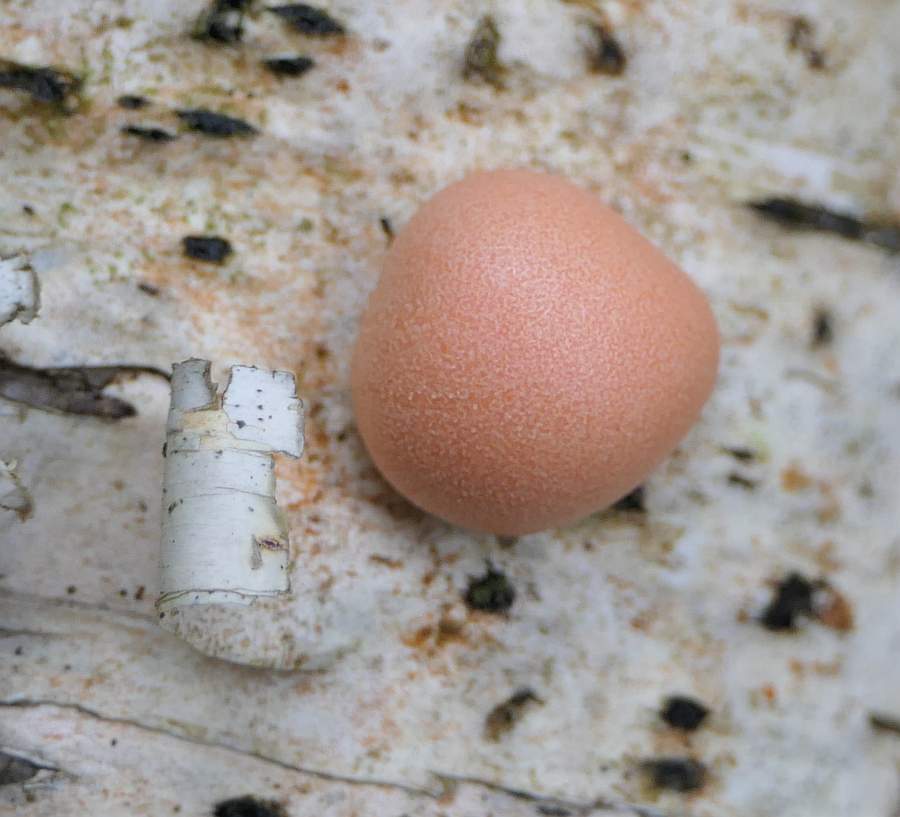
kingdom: Protozoa
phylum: Mycetozoa
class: Myxomycetes
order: Cribrariales
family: Tubiferaceae
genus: Lycogala
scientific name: Lycogala epidendrum
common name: Wolf's milk
